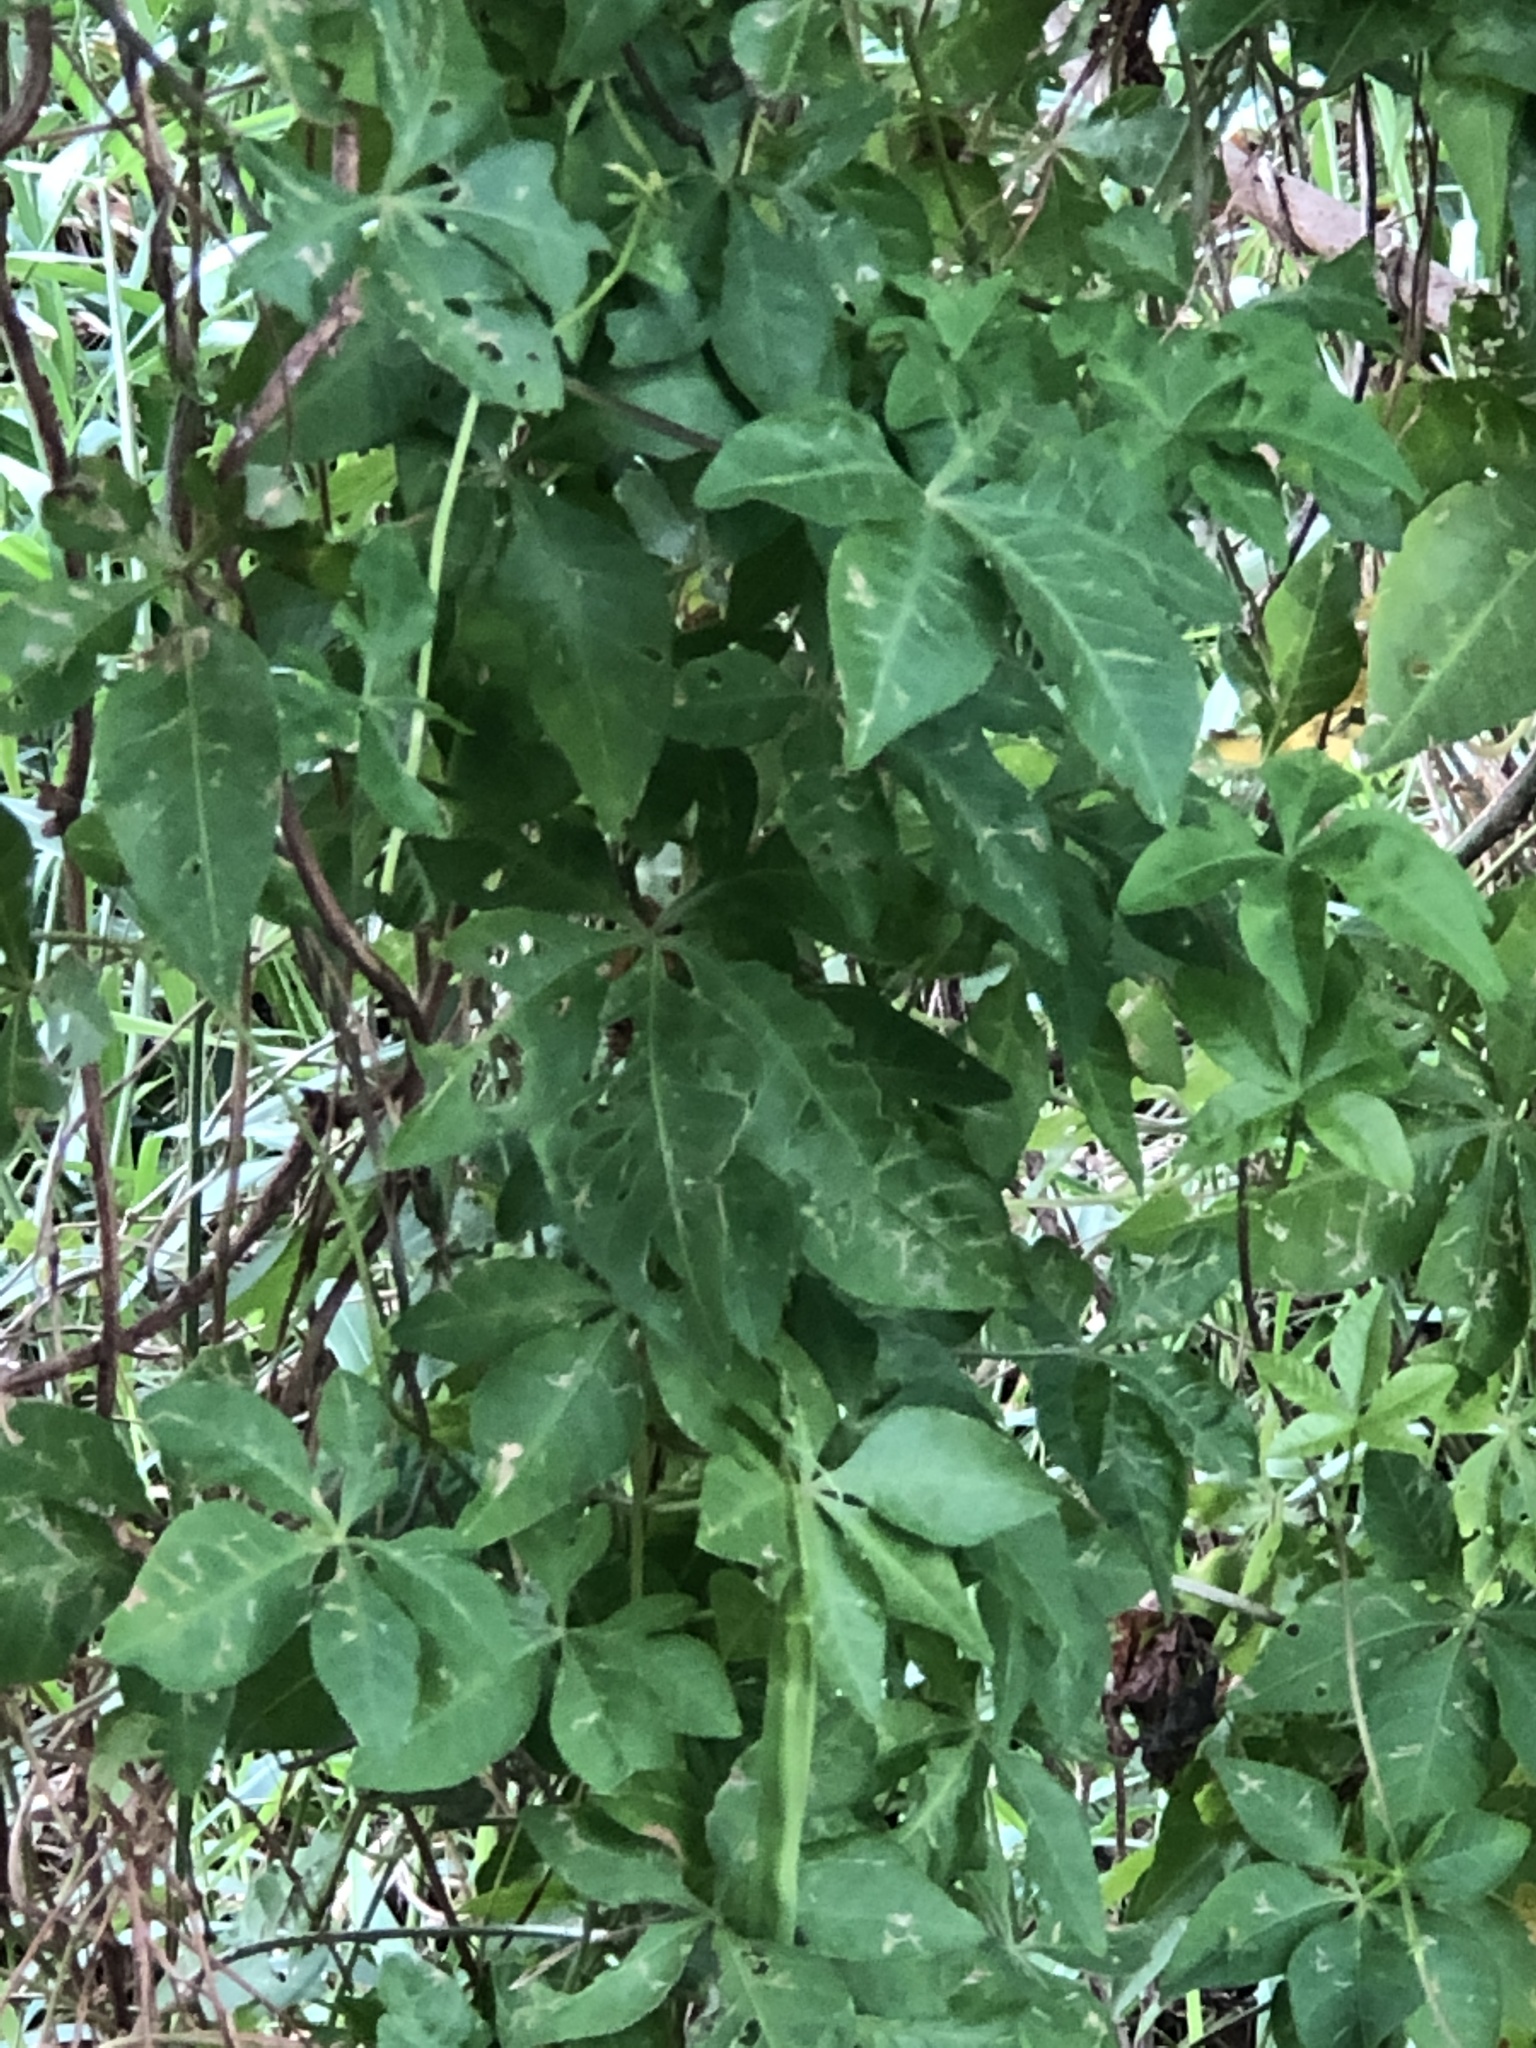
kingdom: Plantae
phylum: Tracheophyta
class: Magnoliopsida
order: Solanales
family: Convolvulaceae
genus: Ipomoea
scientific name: Ipomoea cairica
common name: Mile a minute vine
